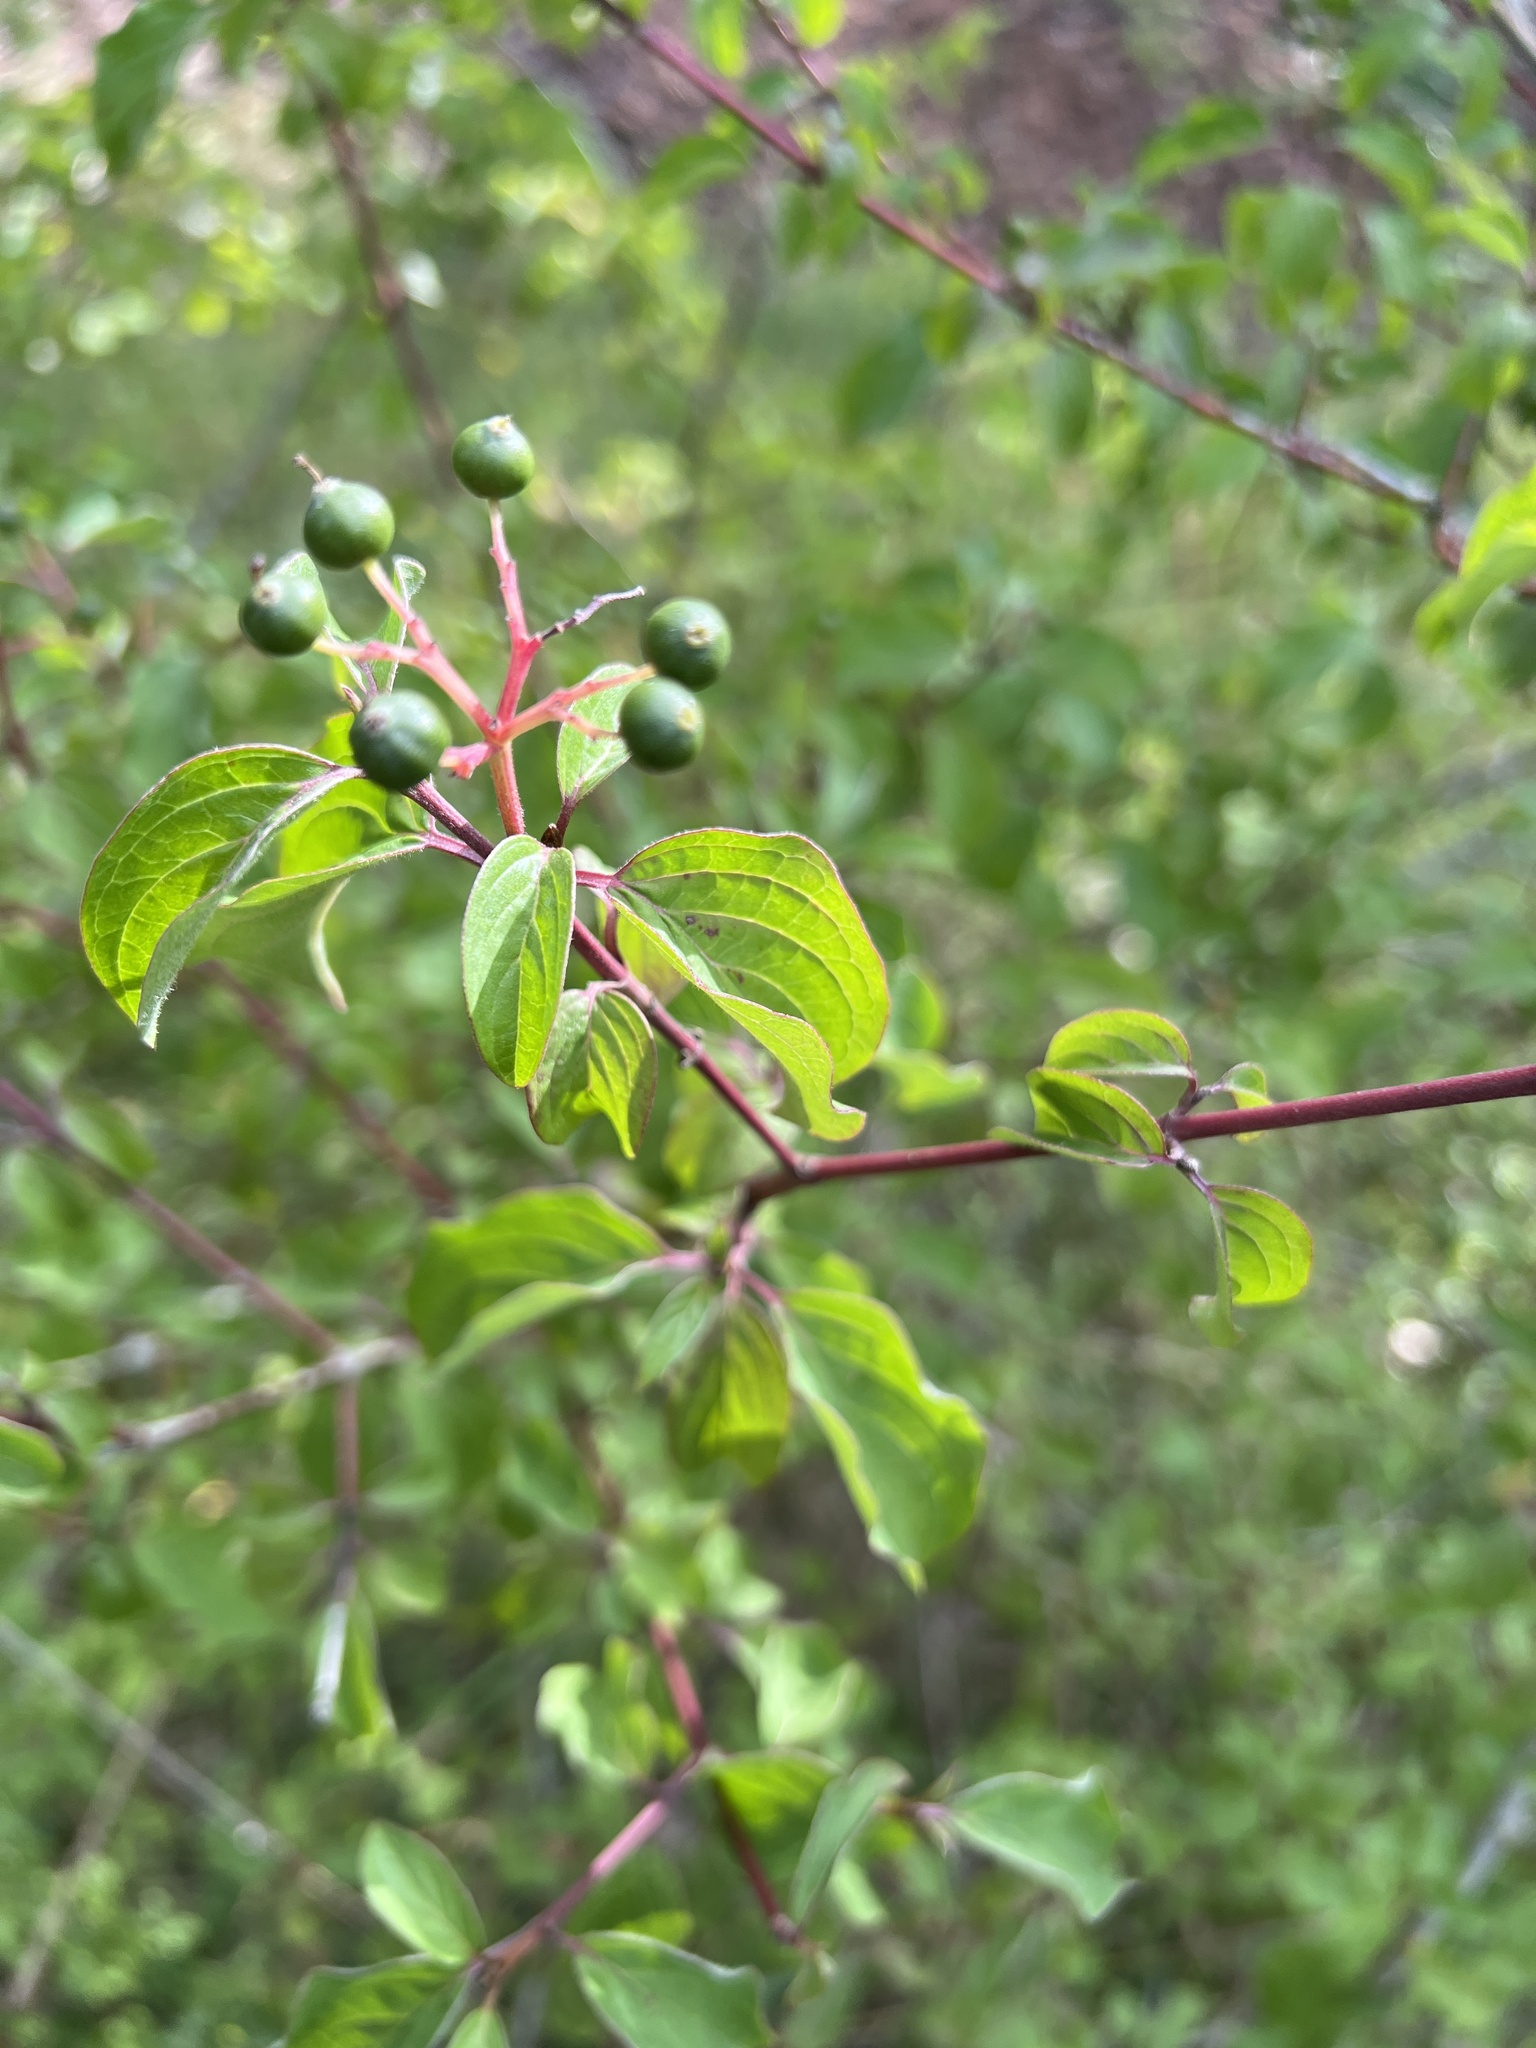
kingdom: Plantae
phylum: Tracheophyta
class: Magnoliopsida
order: Cornales
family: Cornaceae
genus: Cornus
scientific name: Cornus sanguinea
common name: Dogwood
